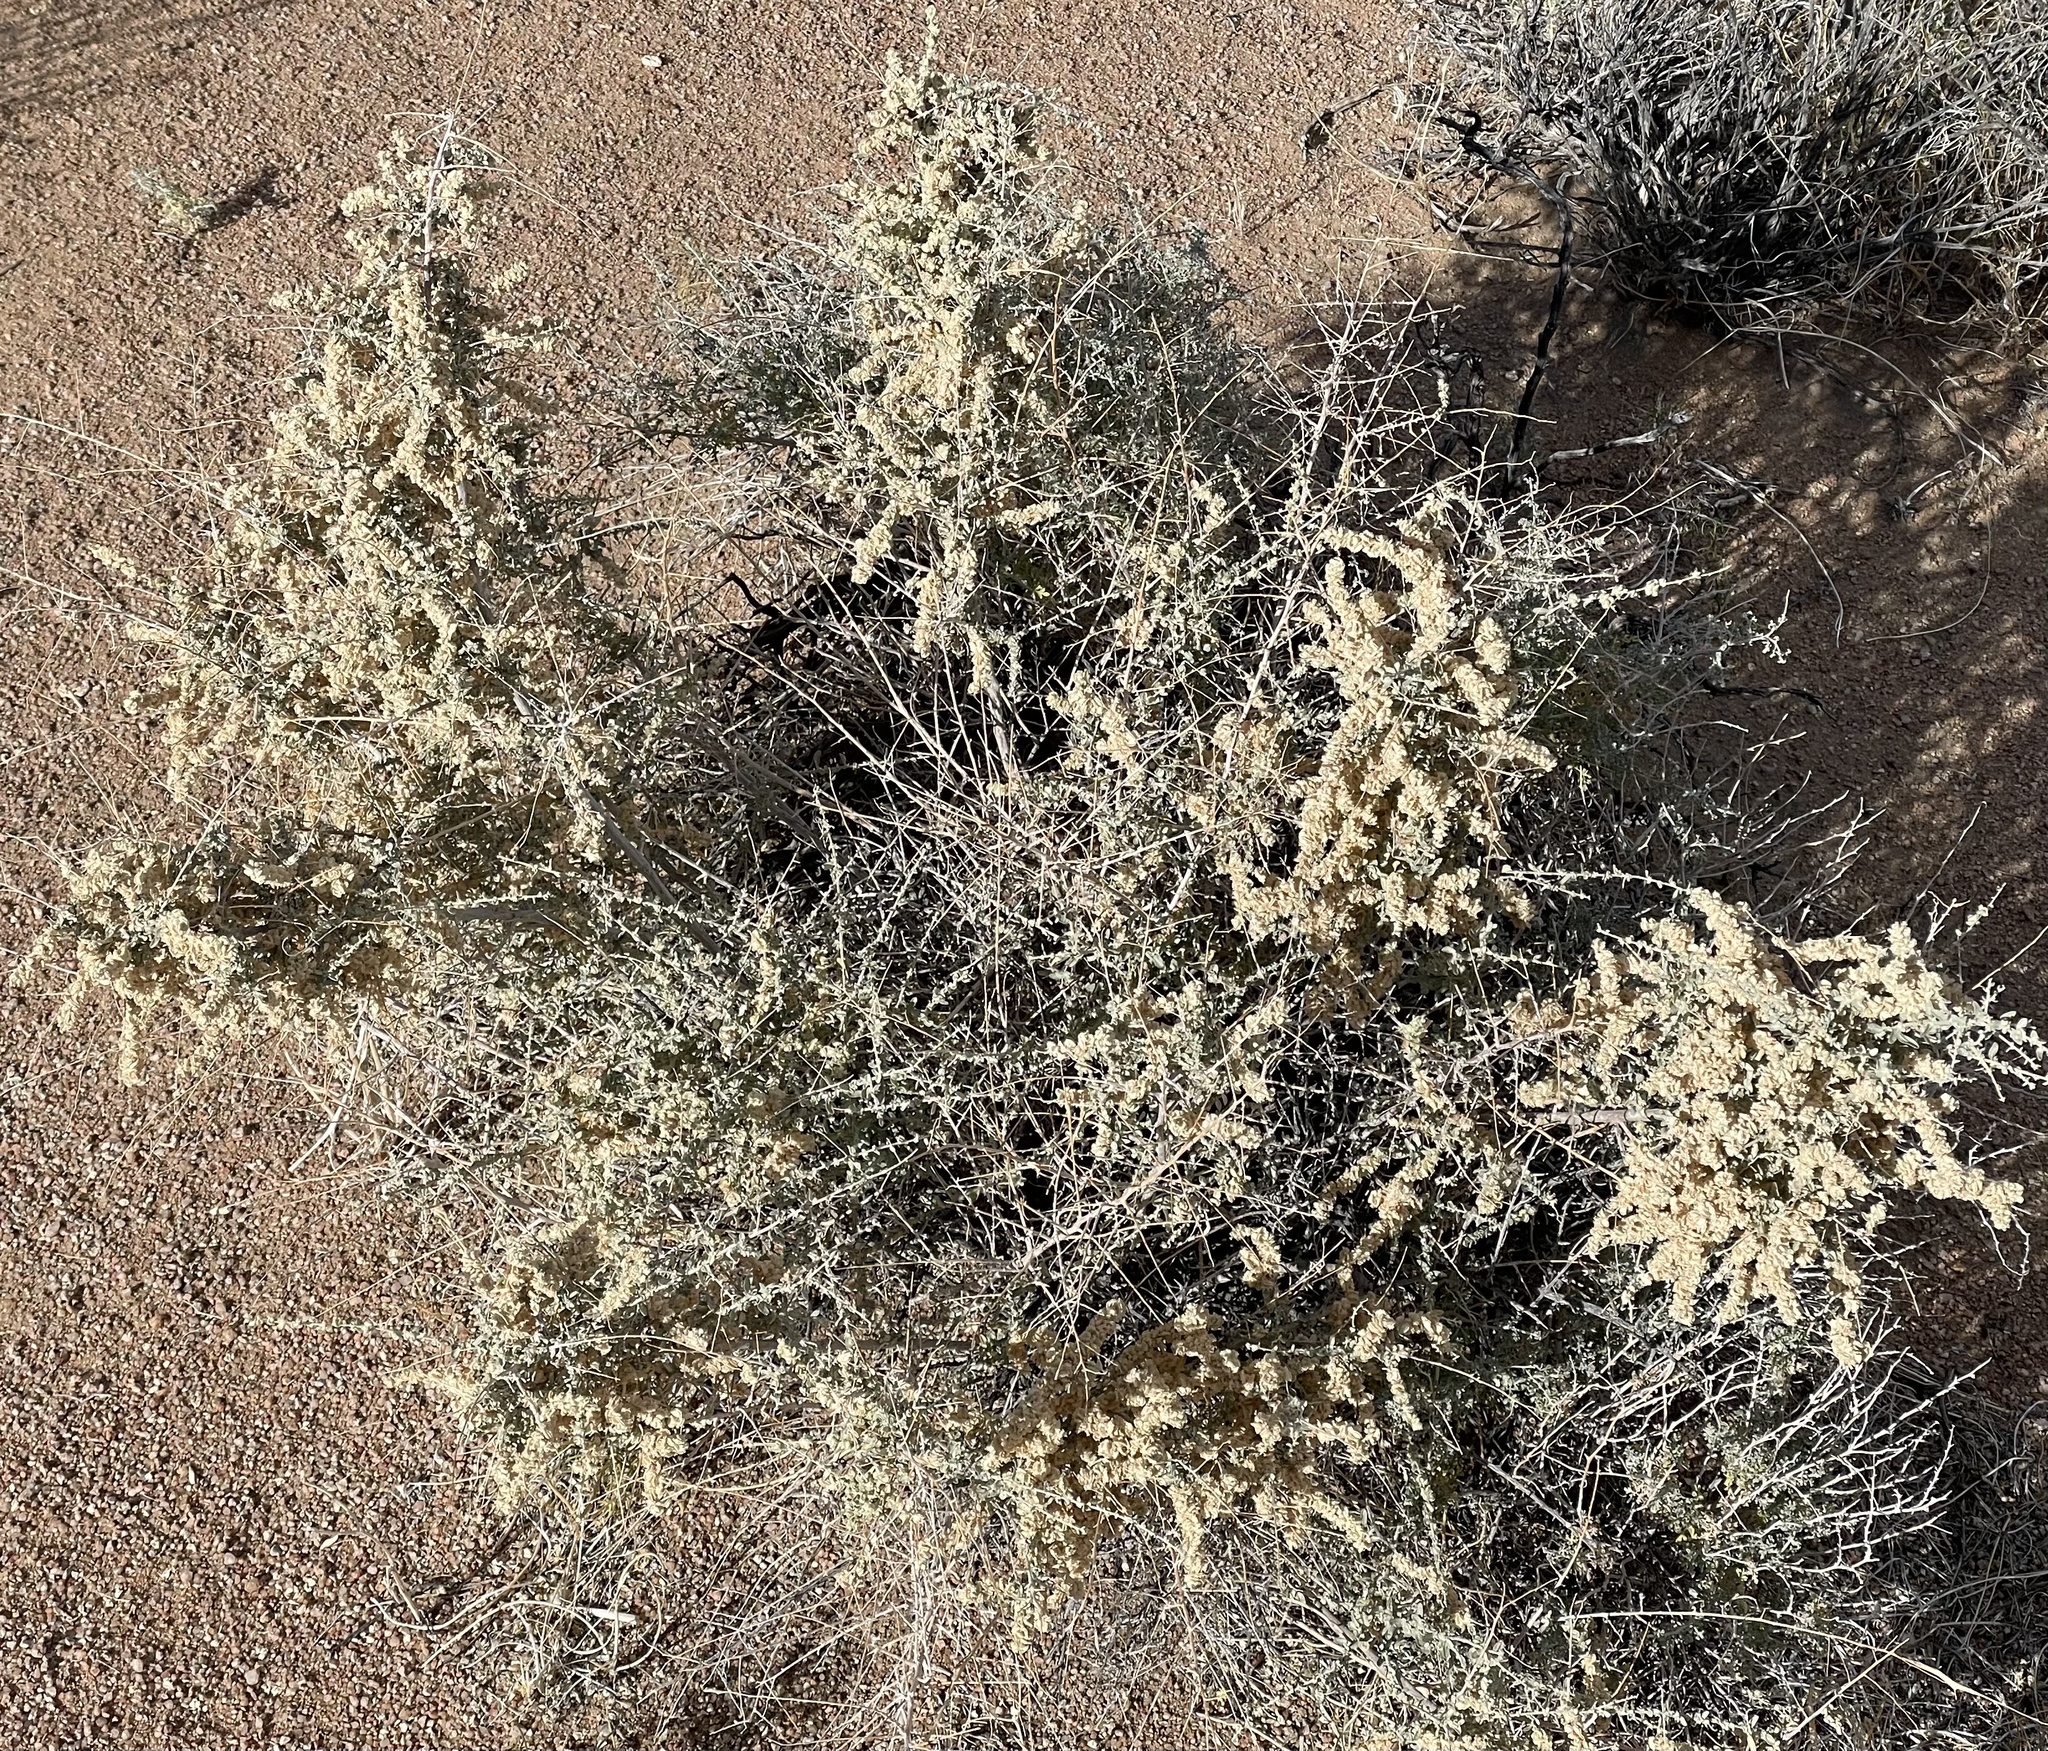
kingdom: Plantae
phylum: Tracheophyta
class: Magnoliopsida
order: Caryophyllales
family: Amaranthaceae
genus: Atriplex
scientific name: Atriplex polycarpa
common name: Desert saltbush
